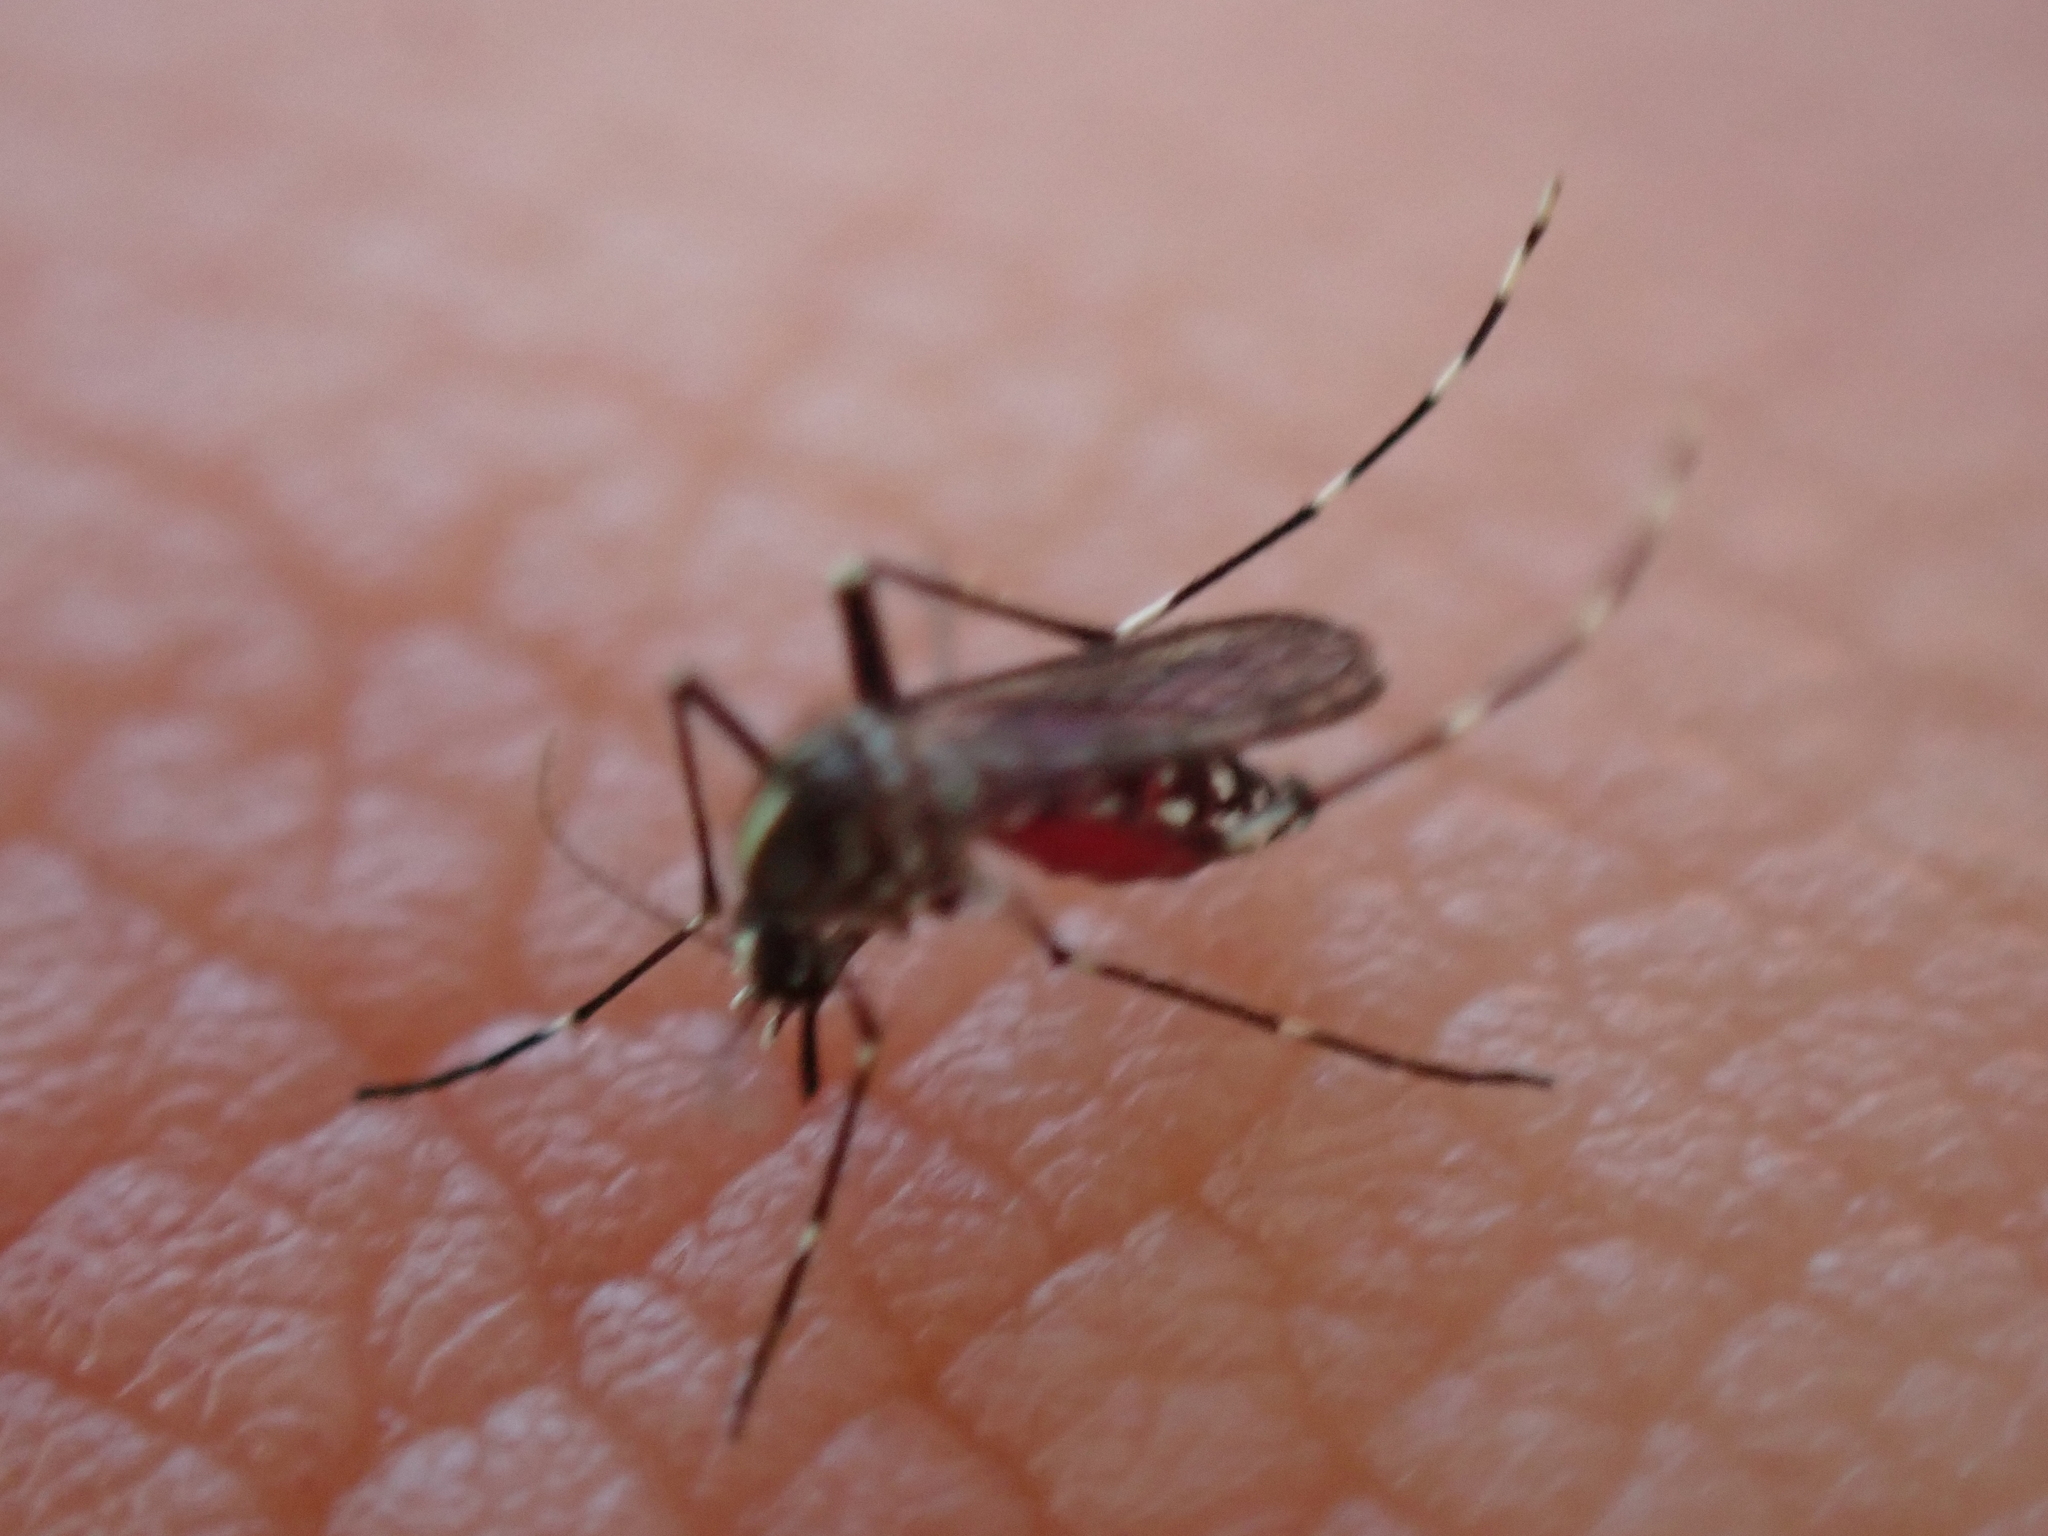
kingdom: Animalia
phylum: Arthropoda
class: Insecta
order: Diptera
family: Culicidae
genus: Aedes
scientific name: Aedes albopictus
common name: Tiger mosquito
